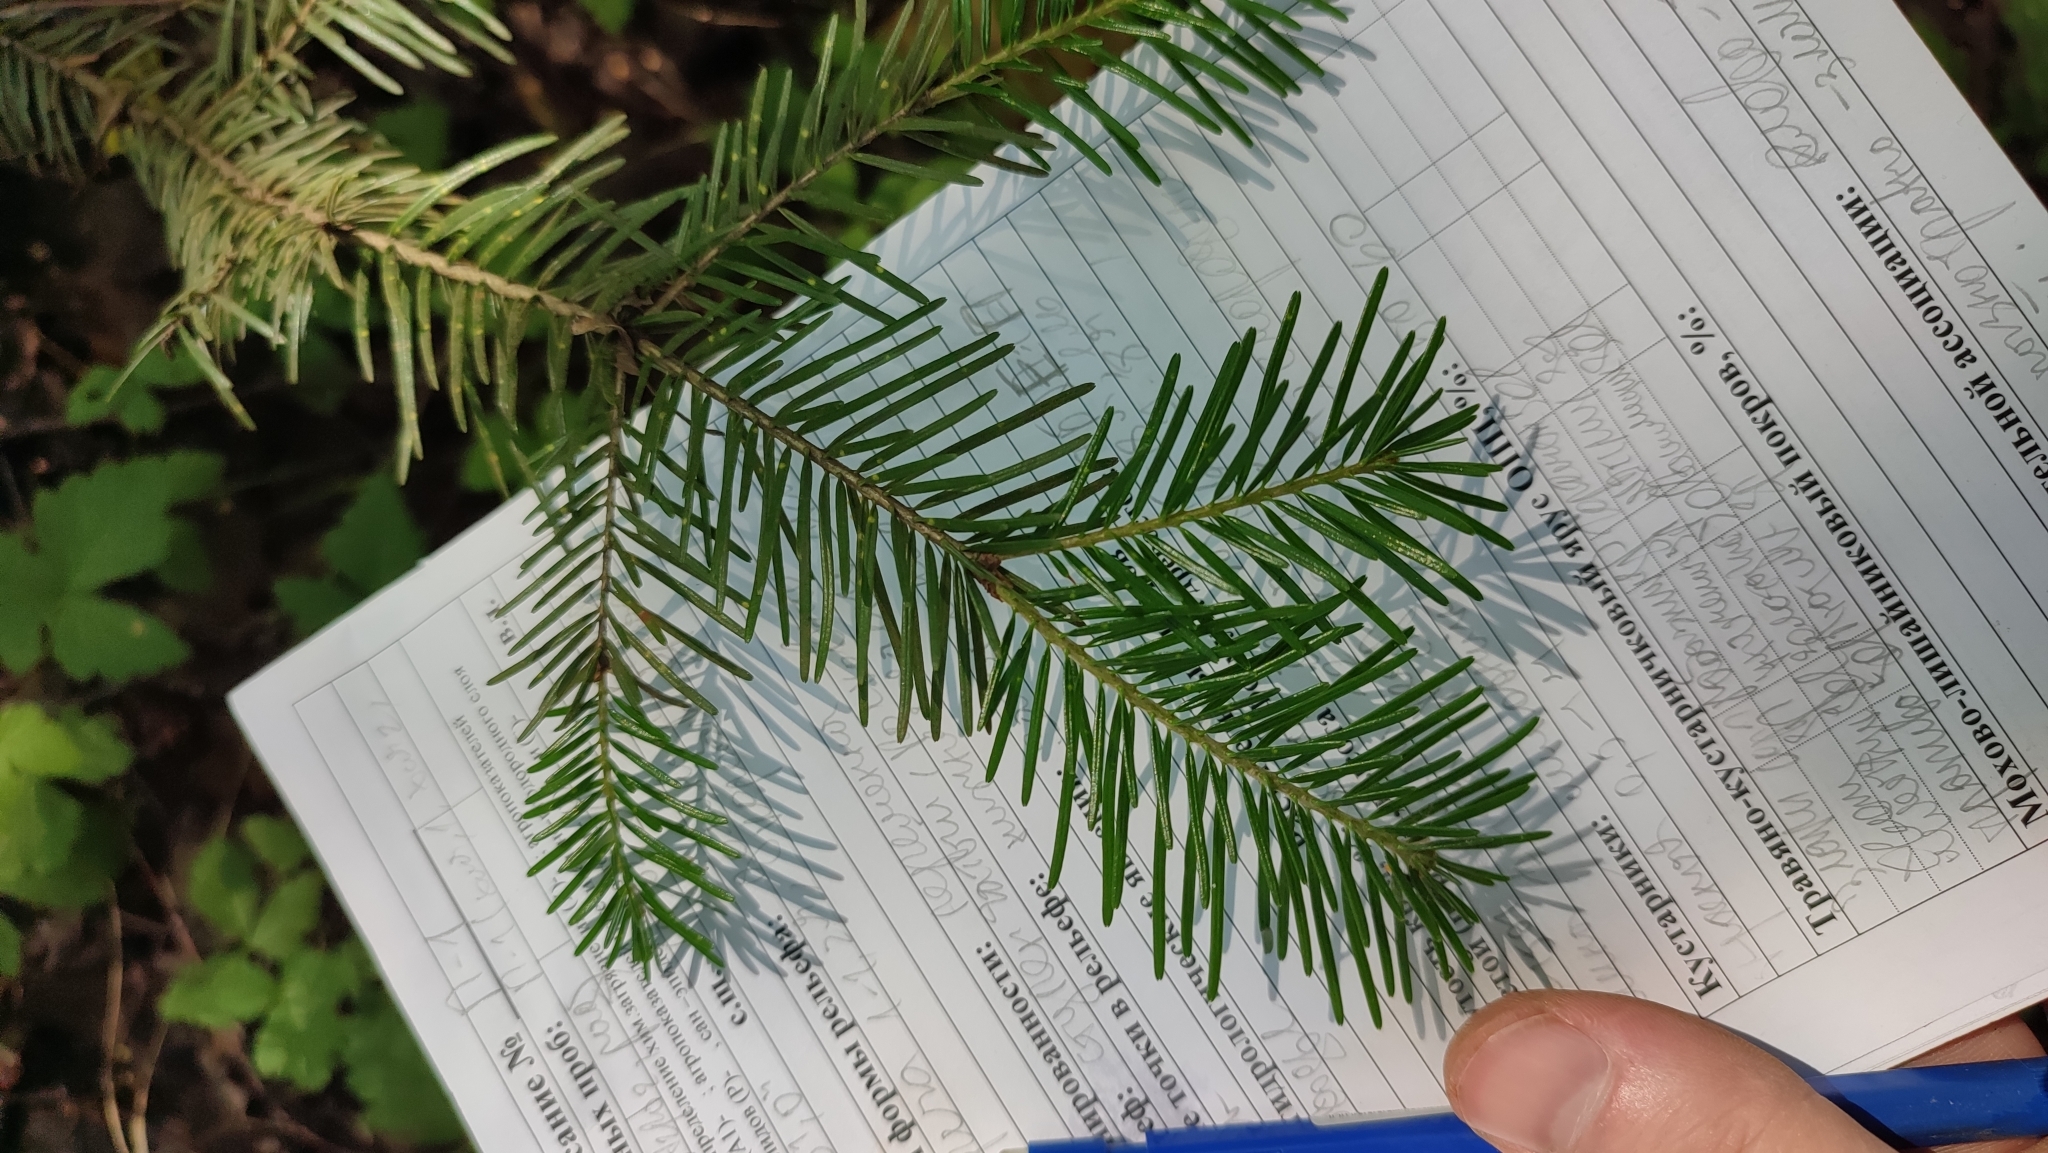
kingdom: Plantae
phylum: Tracheophyta
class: Pinopsida
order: Pinales
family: Pinaceae
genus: Abies
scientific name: Abies sibirica
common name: Siberian fir
